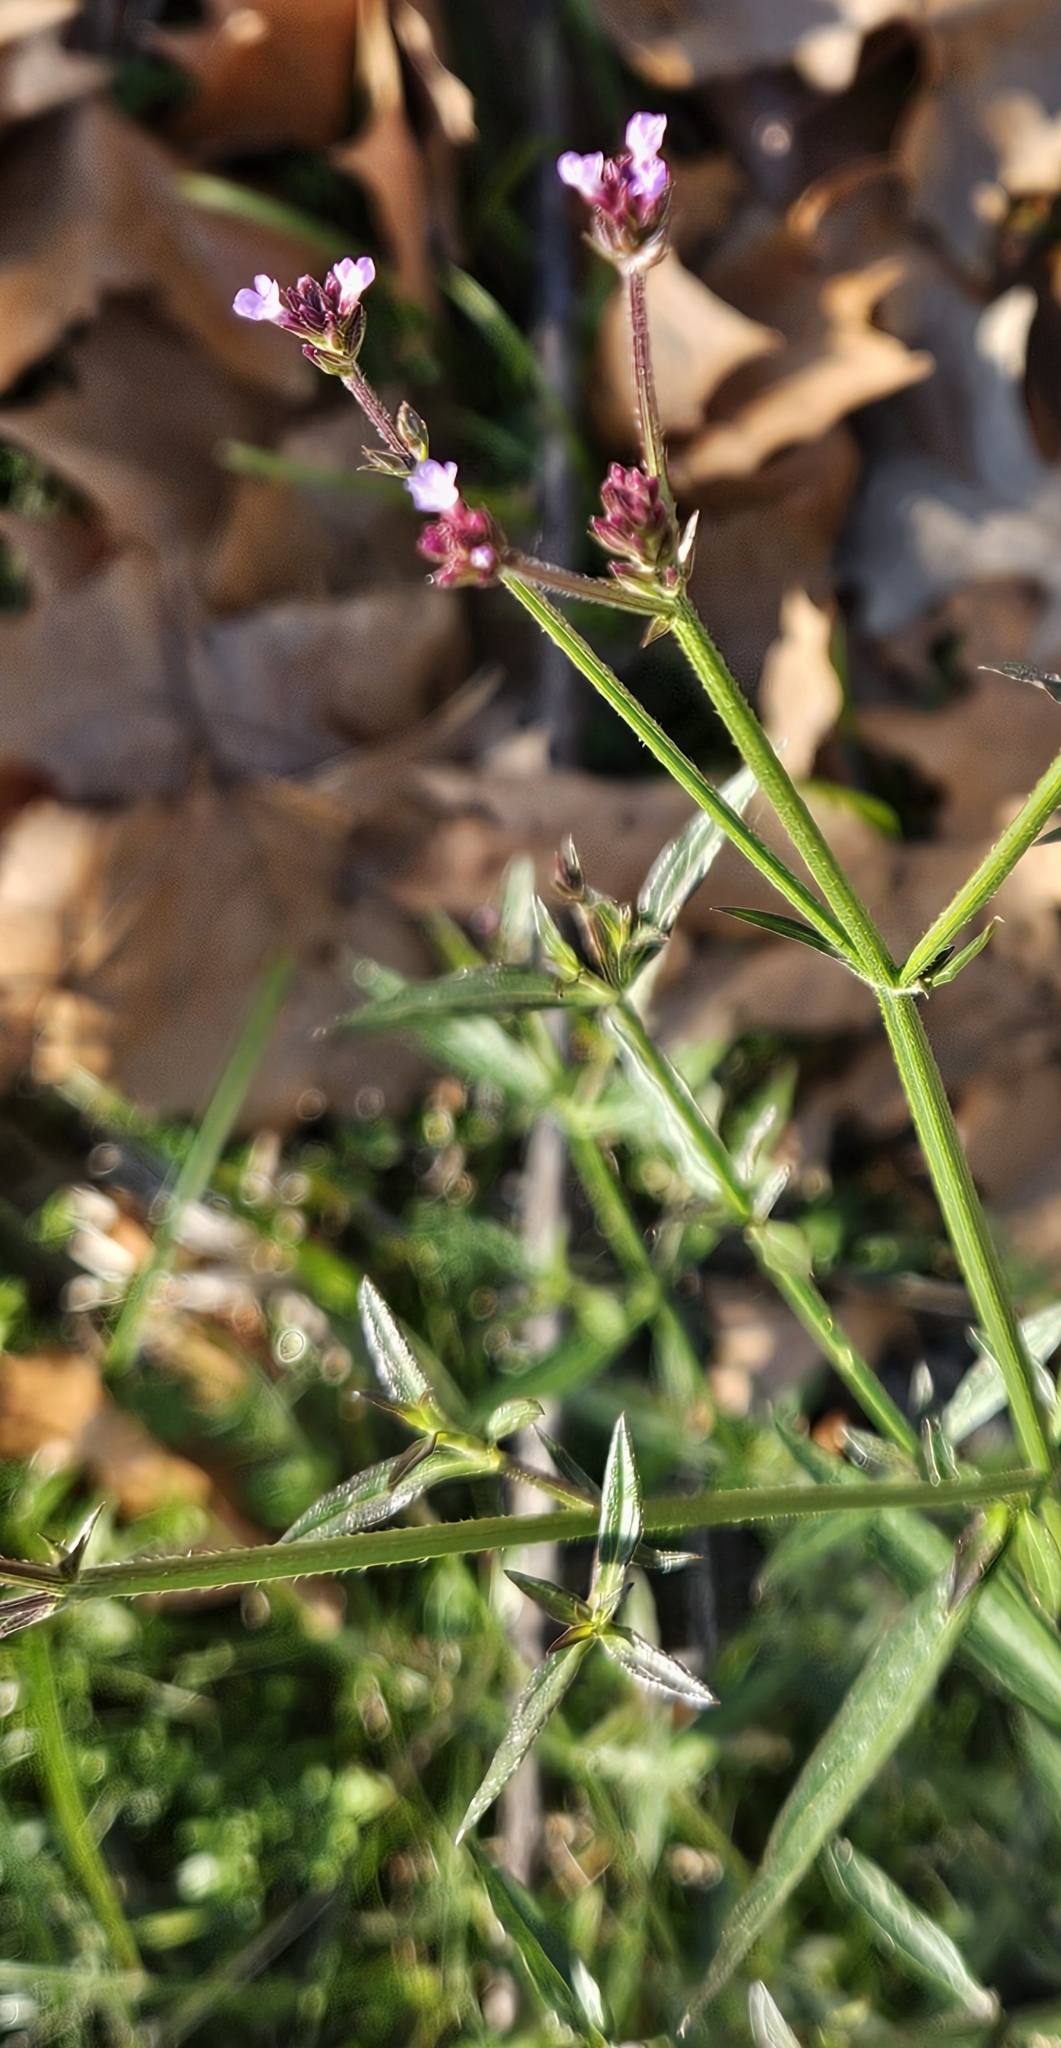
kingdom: Plantae
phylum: Tracheophyta
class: Magnoliopsida
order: Lamiales
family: Verbenaceae
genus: Verbena
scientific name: Verbena brasiliensis
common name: Brazilian vervain
